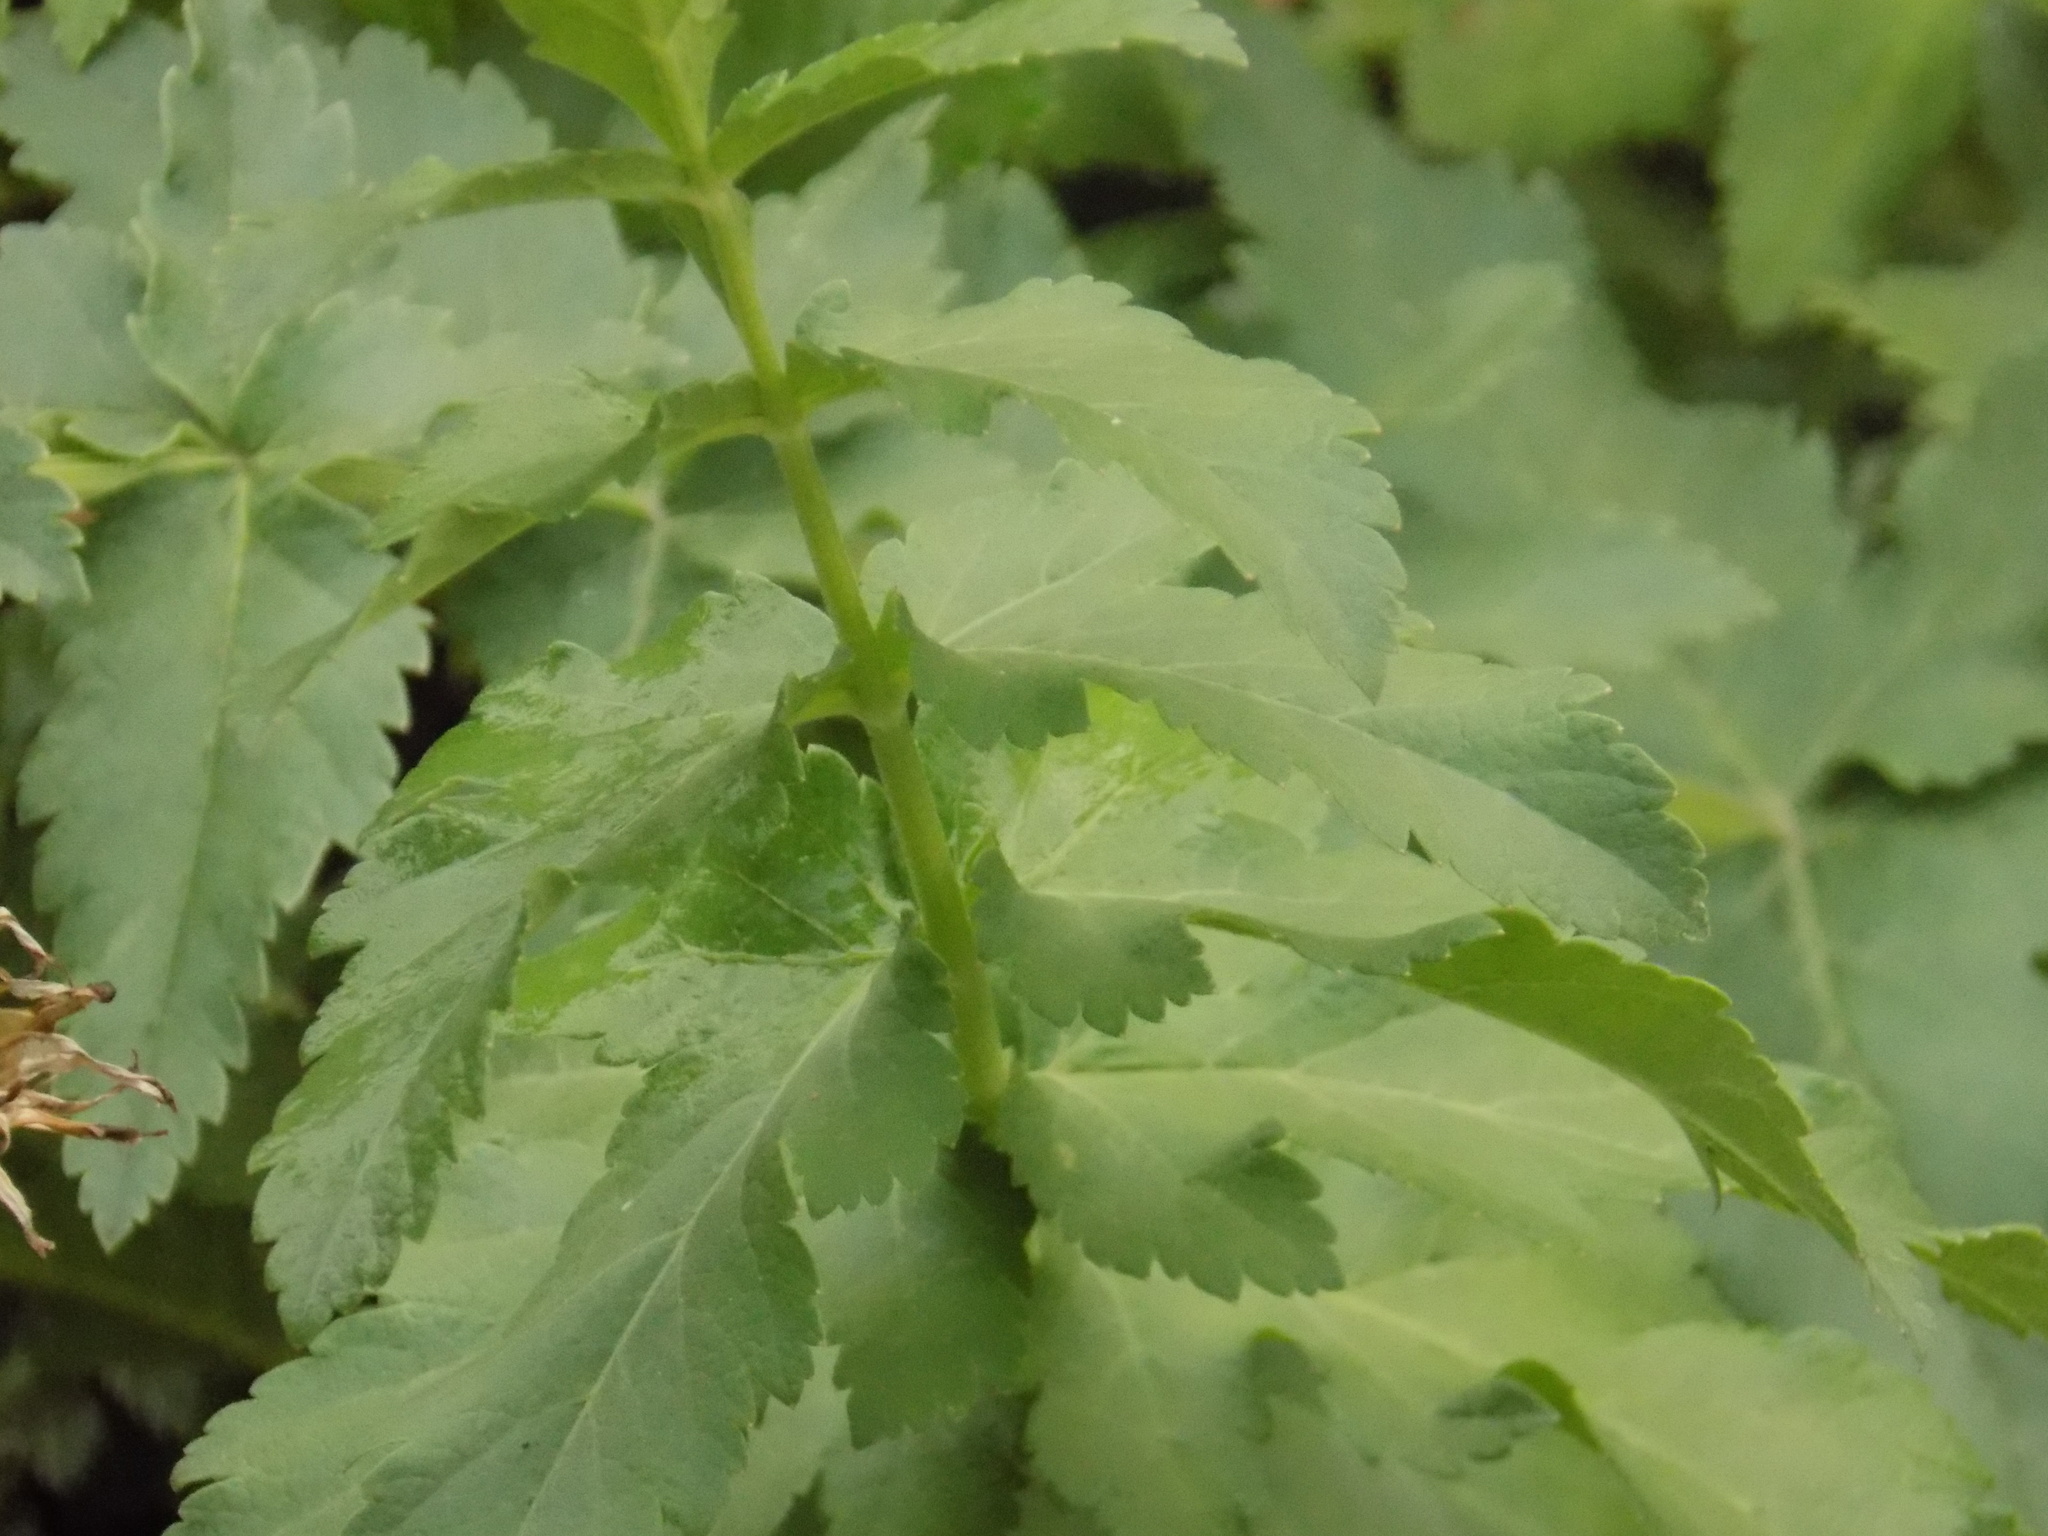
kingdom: Plantae
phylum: Tracheophyta
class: Magnoliopsida
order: Apiales
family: Apiaceae
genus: Pastinaca
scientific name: Pastinaca sativa
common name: Wild parsnip
